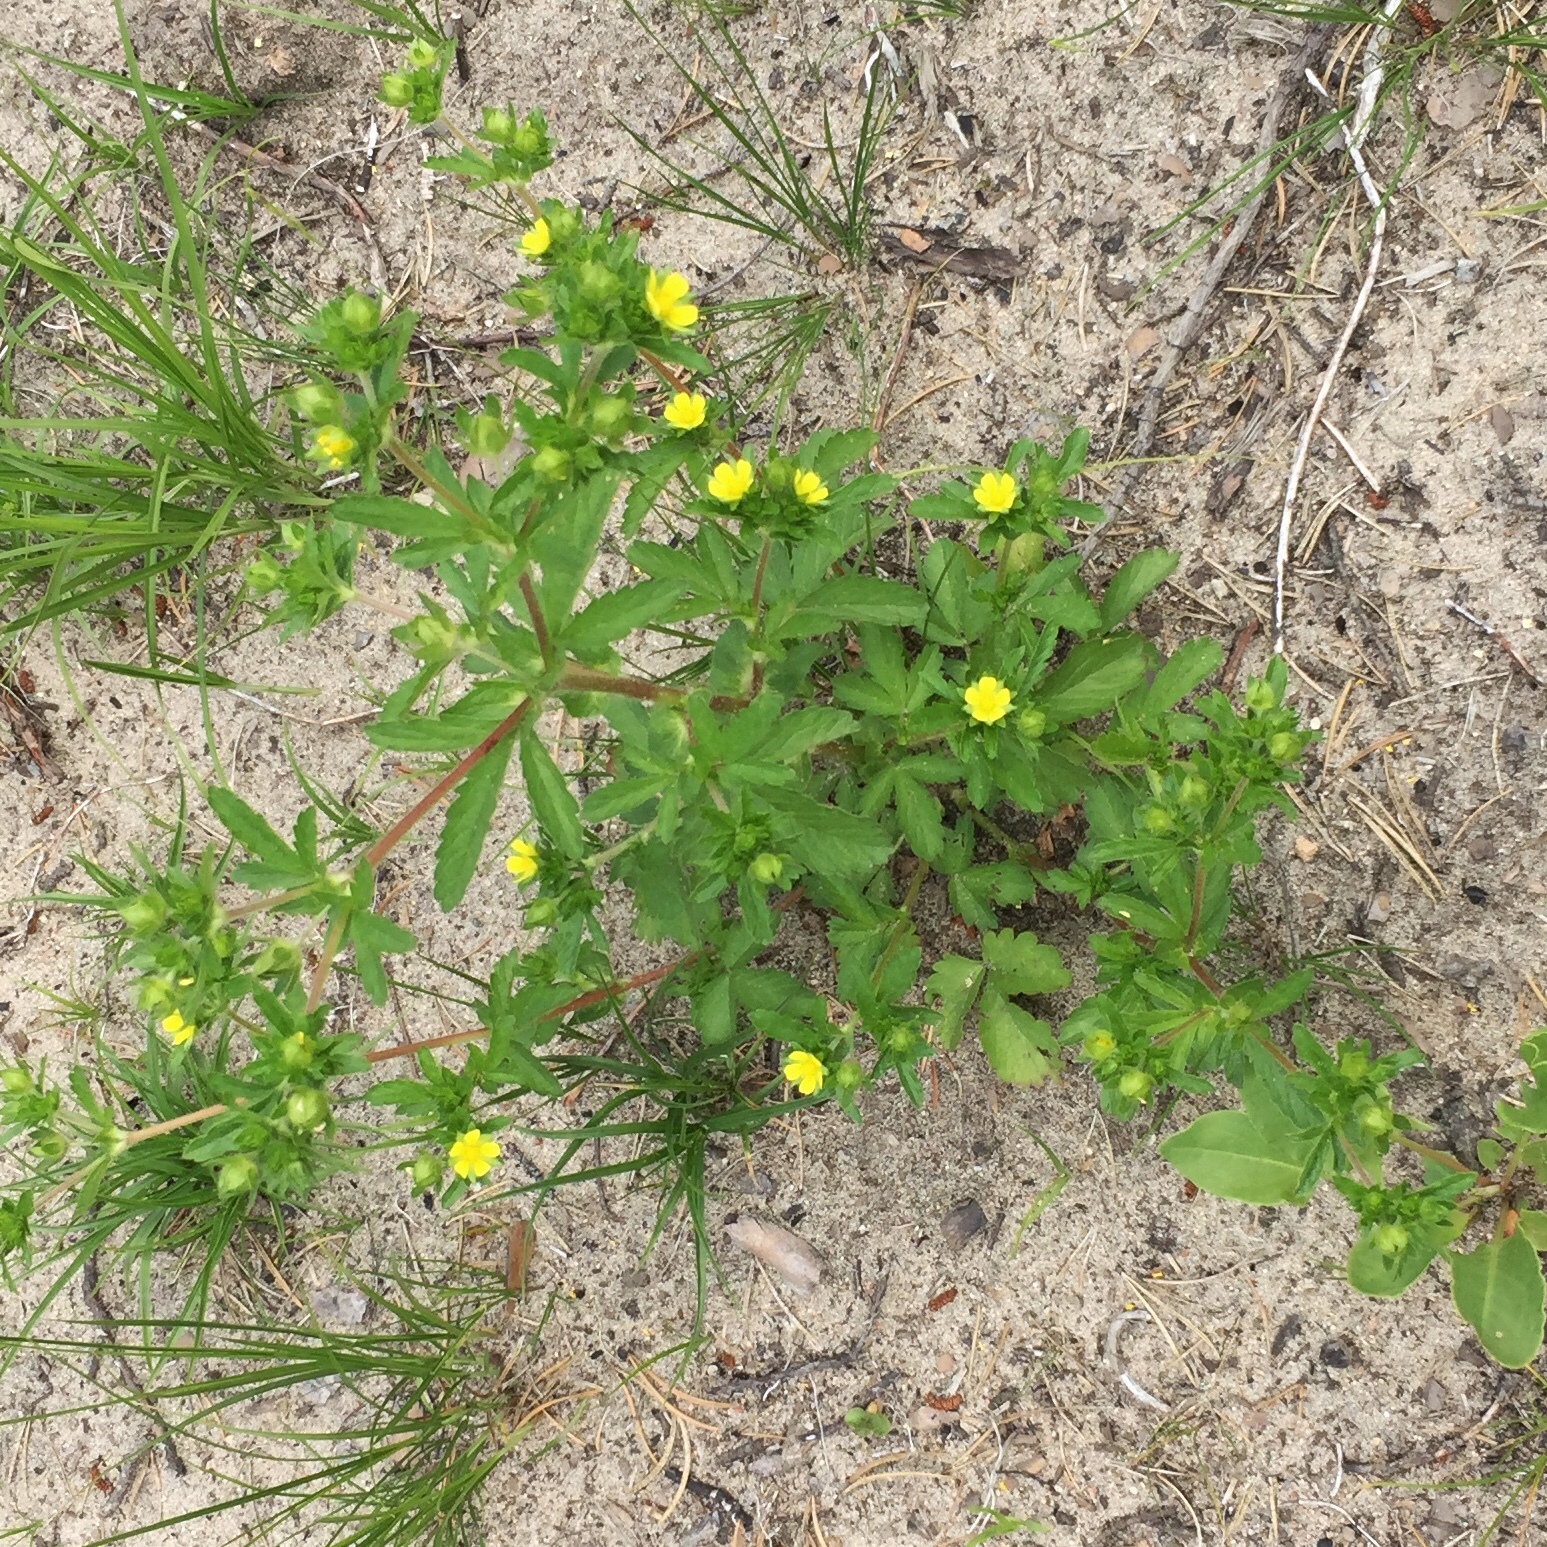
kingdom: Plantae
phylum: Tracheophyta
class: Magnoliopsida
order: Rosales
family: Rosaceae
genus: Potentilla
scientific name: Potentilla norvegica
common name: Ternate-leaved cinquefoil
